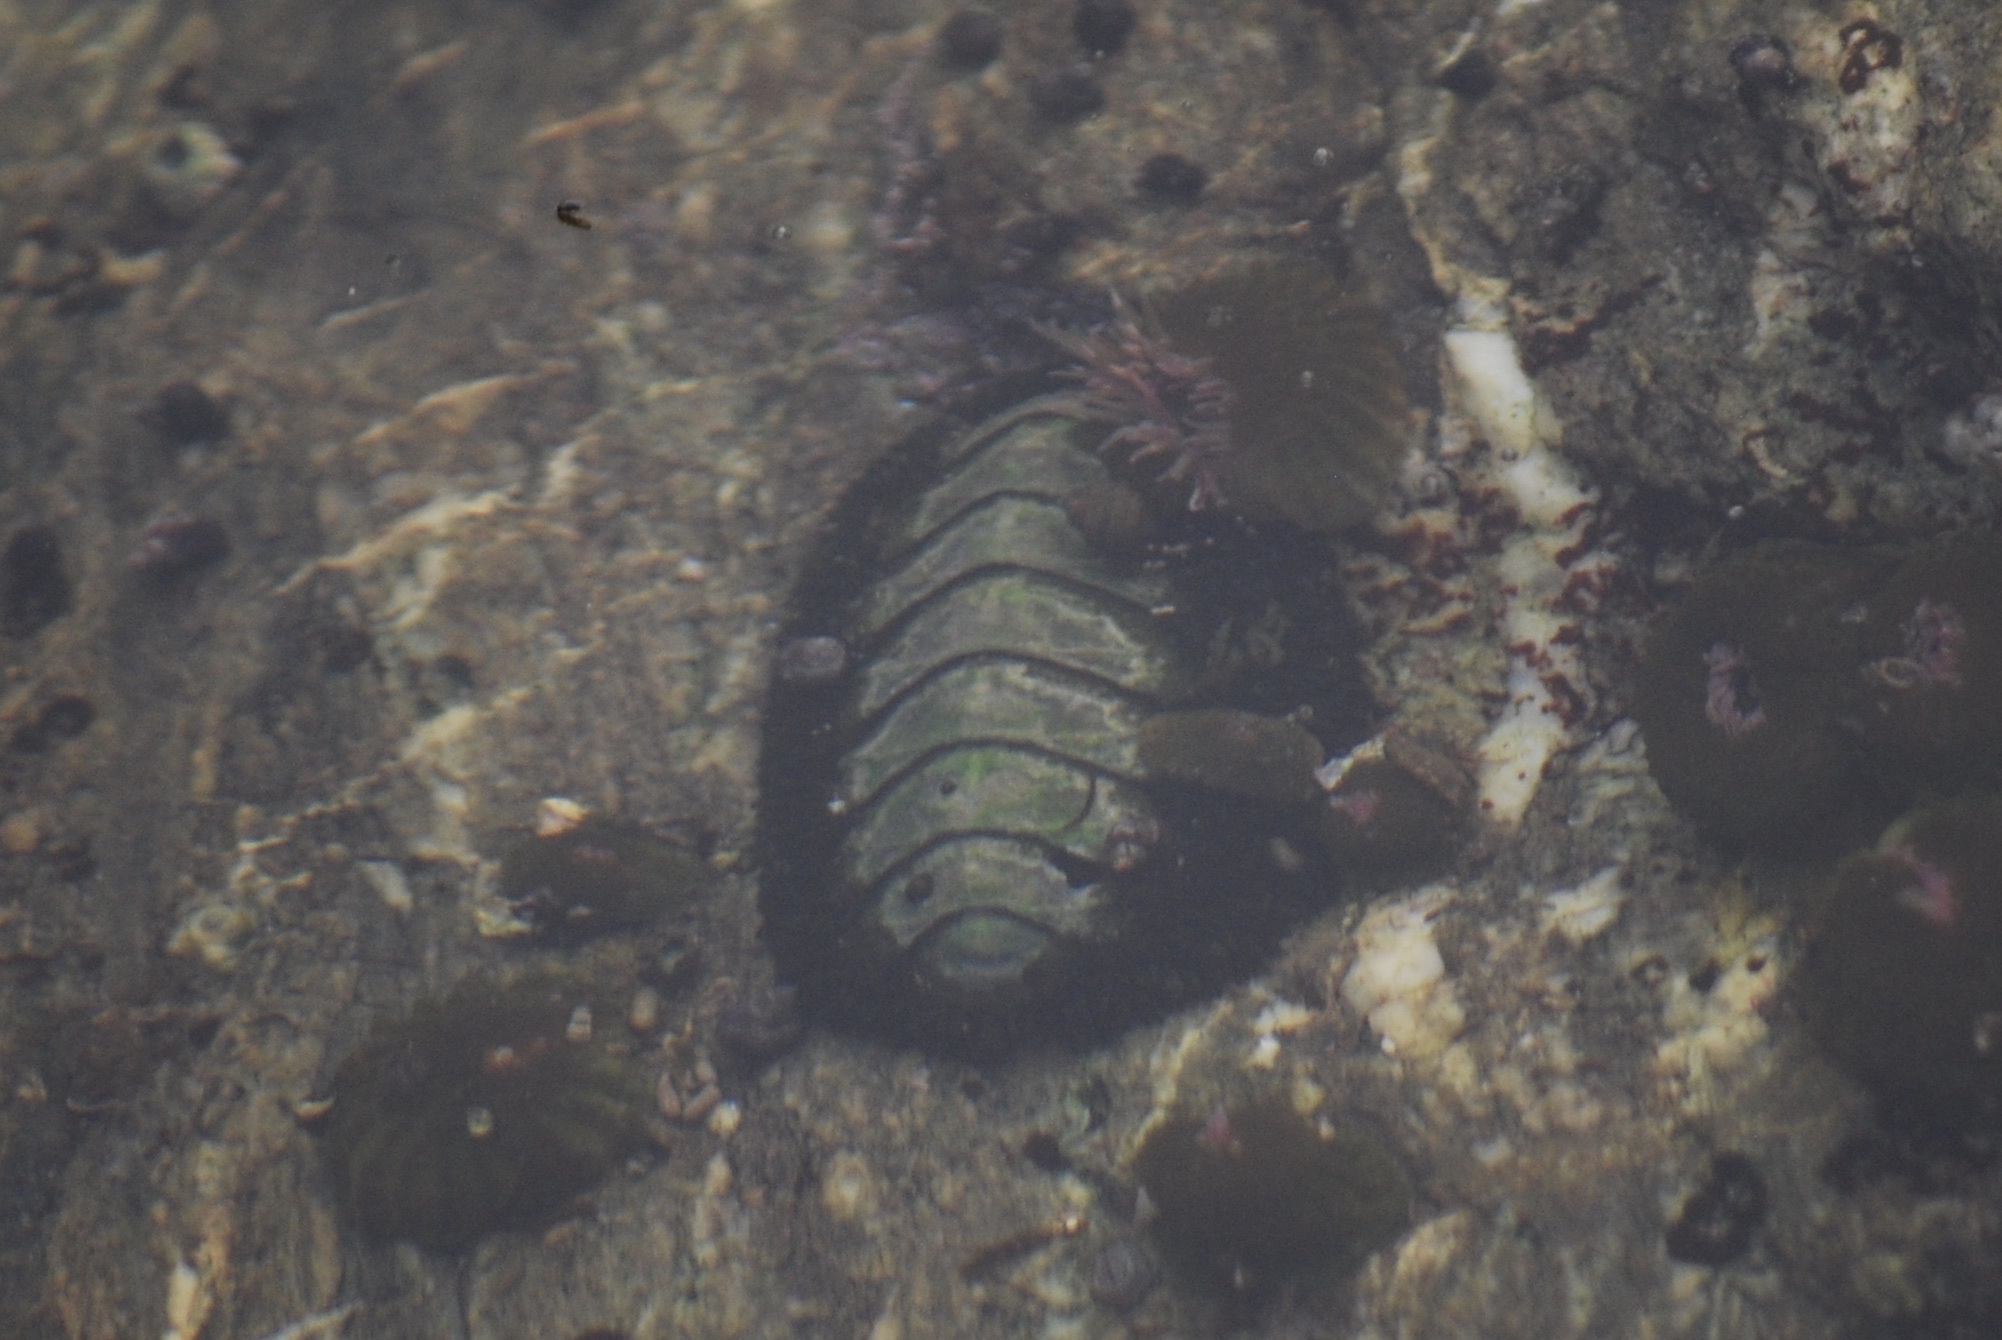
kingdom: Animalia
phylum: Mollusca
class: Polyplacophora
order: Chitonida
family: Mopaliidae
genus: Mopalia
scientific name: Mopalia muscosa
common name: Mossy chiton
